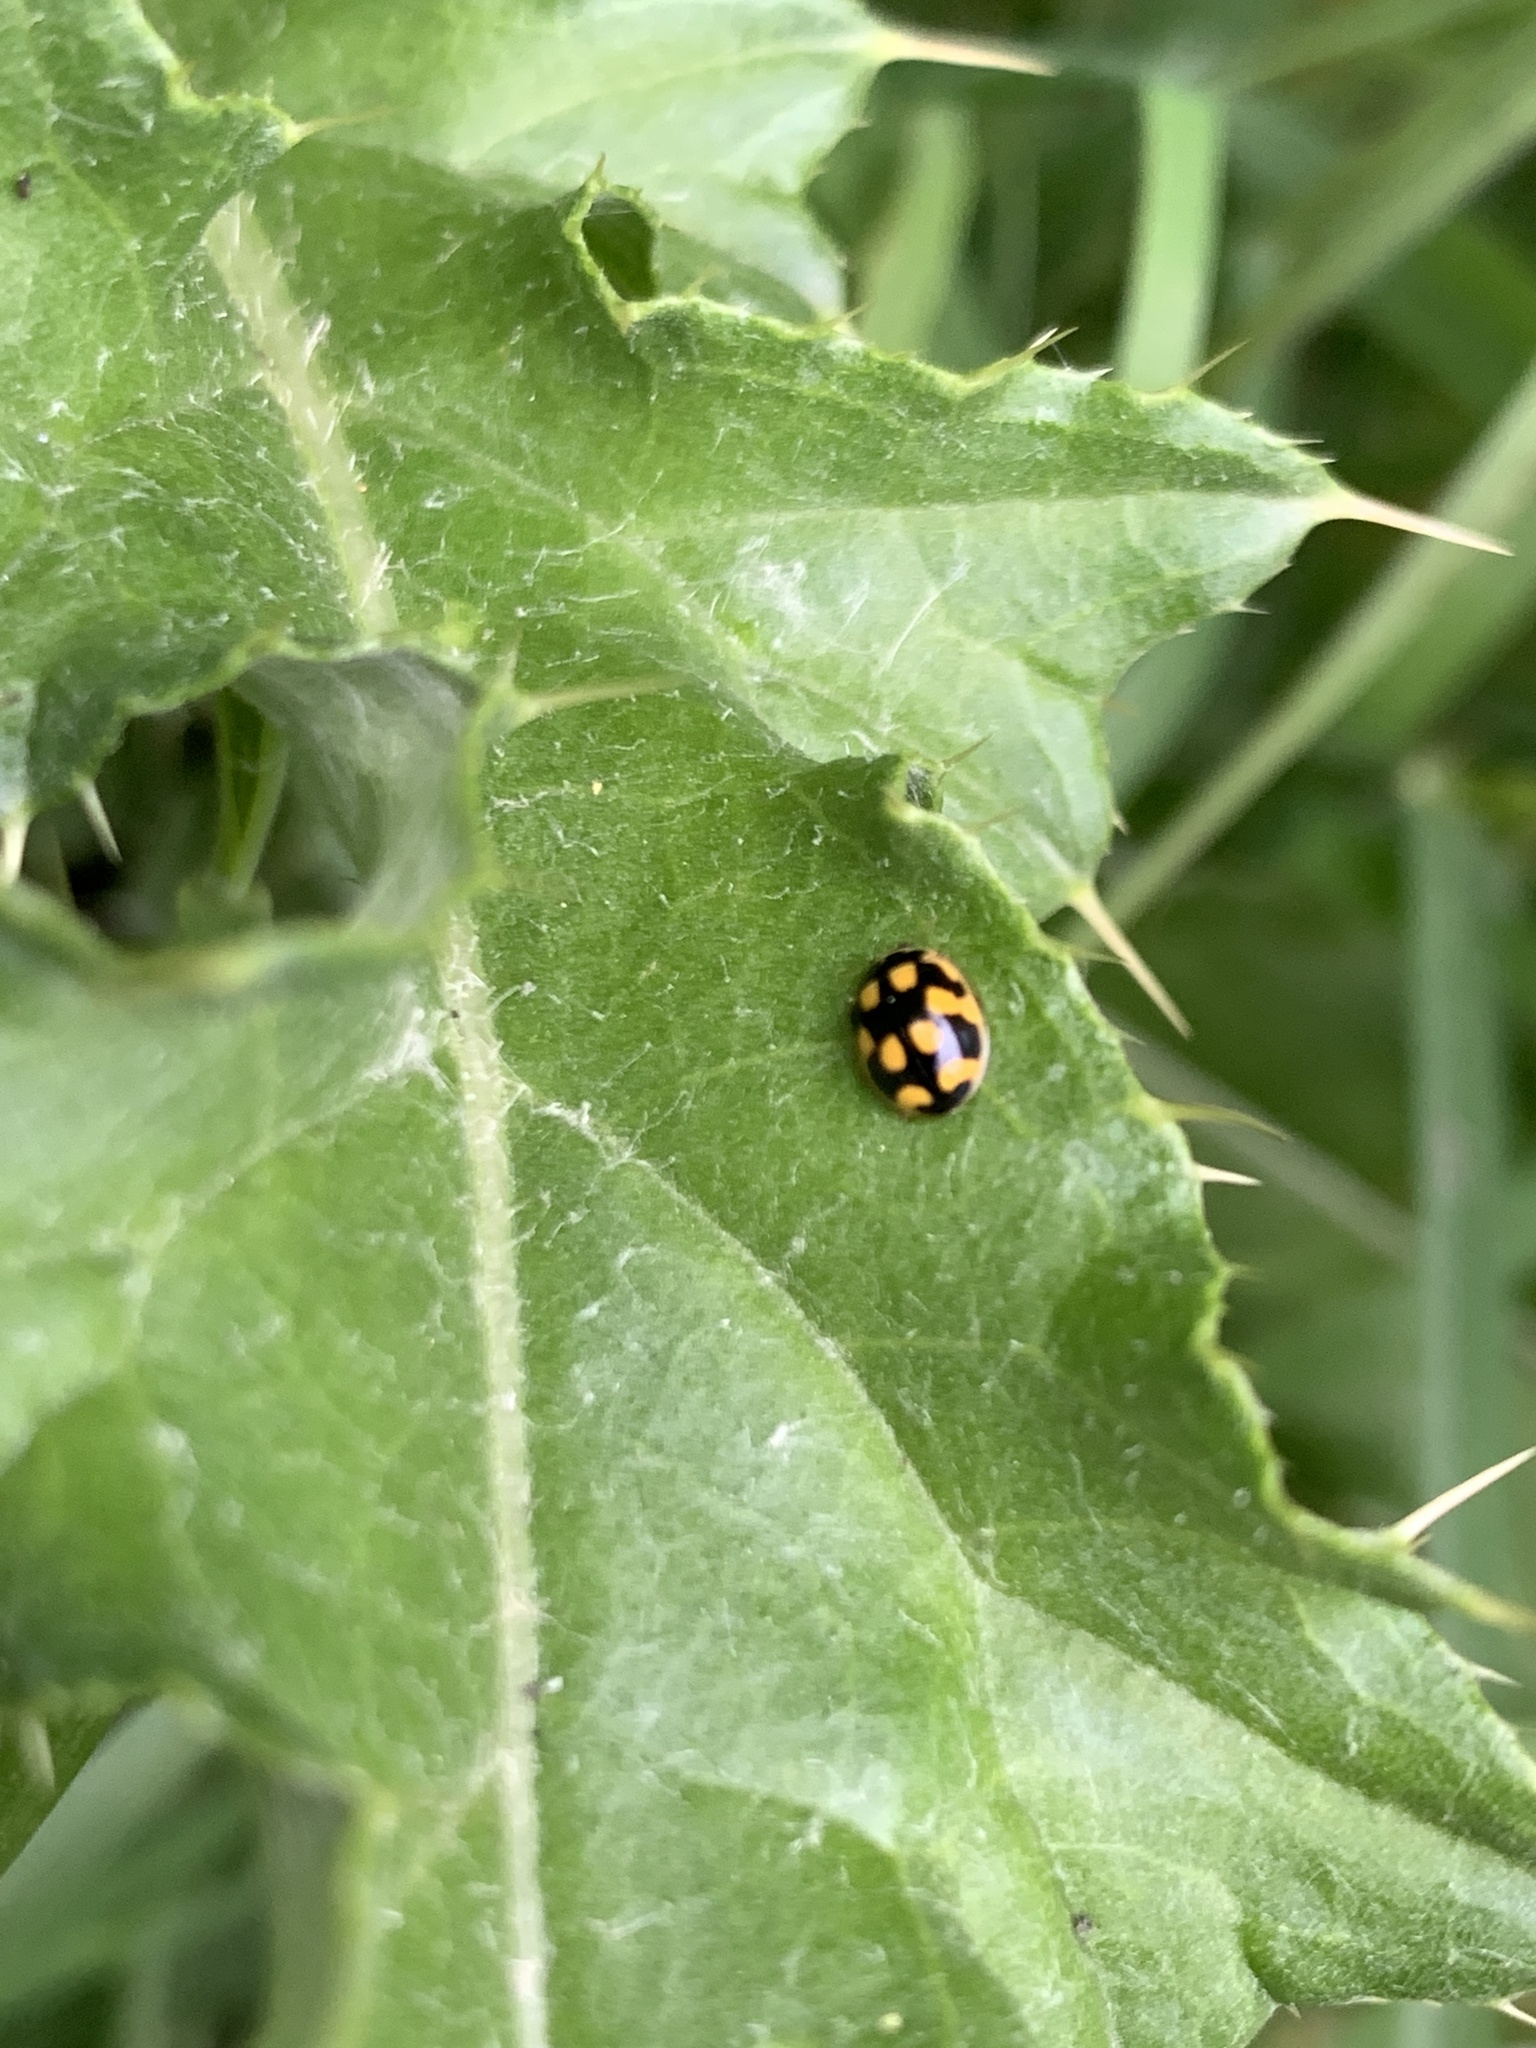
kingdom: Animalia
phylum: Arthropoda
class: Insecta
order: Coleoptera
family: Coccinellidae
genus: Propylaea
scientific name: Propylaea quatuordecimpunctata
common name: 14-spotted ladybird beetle
